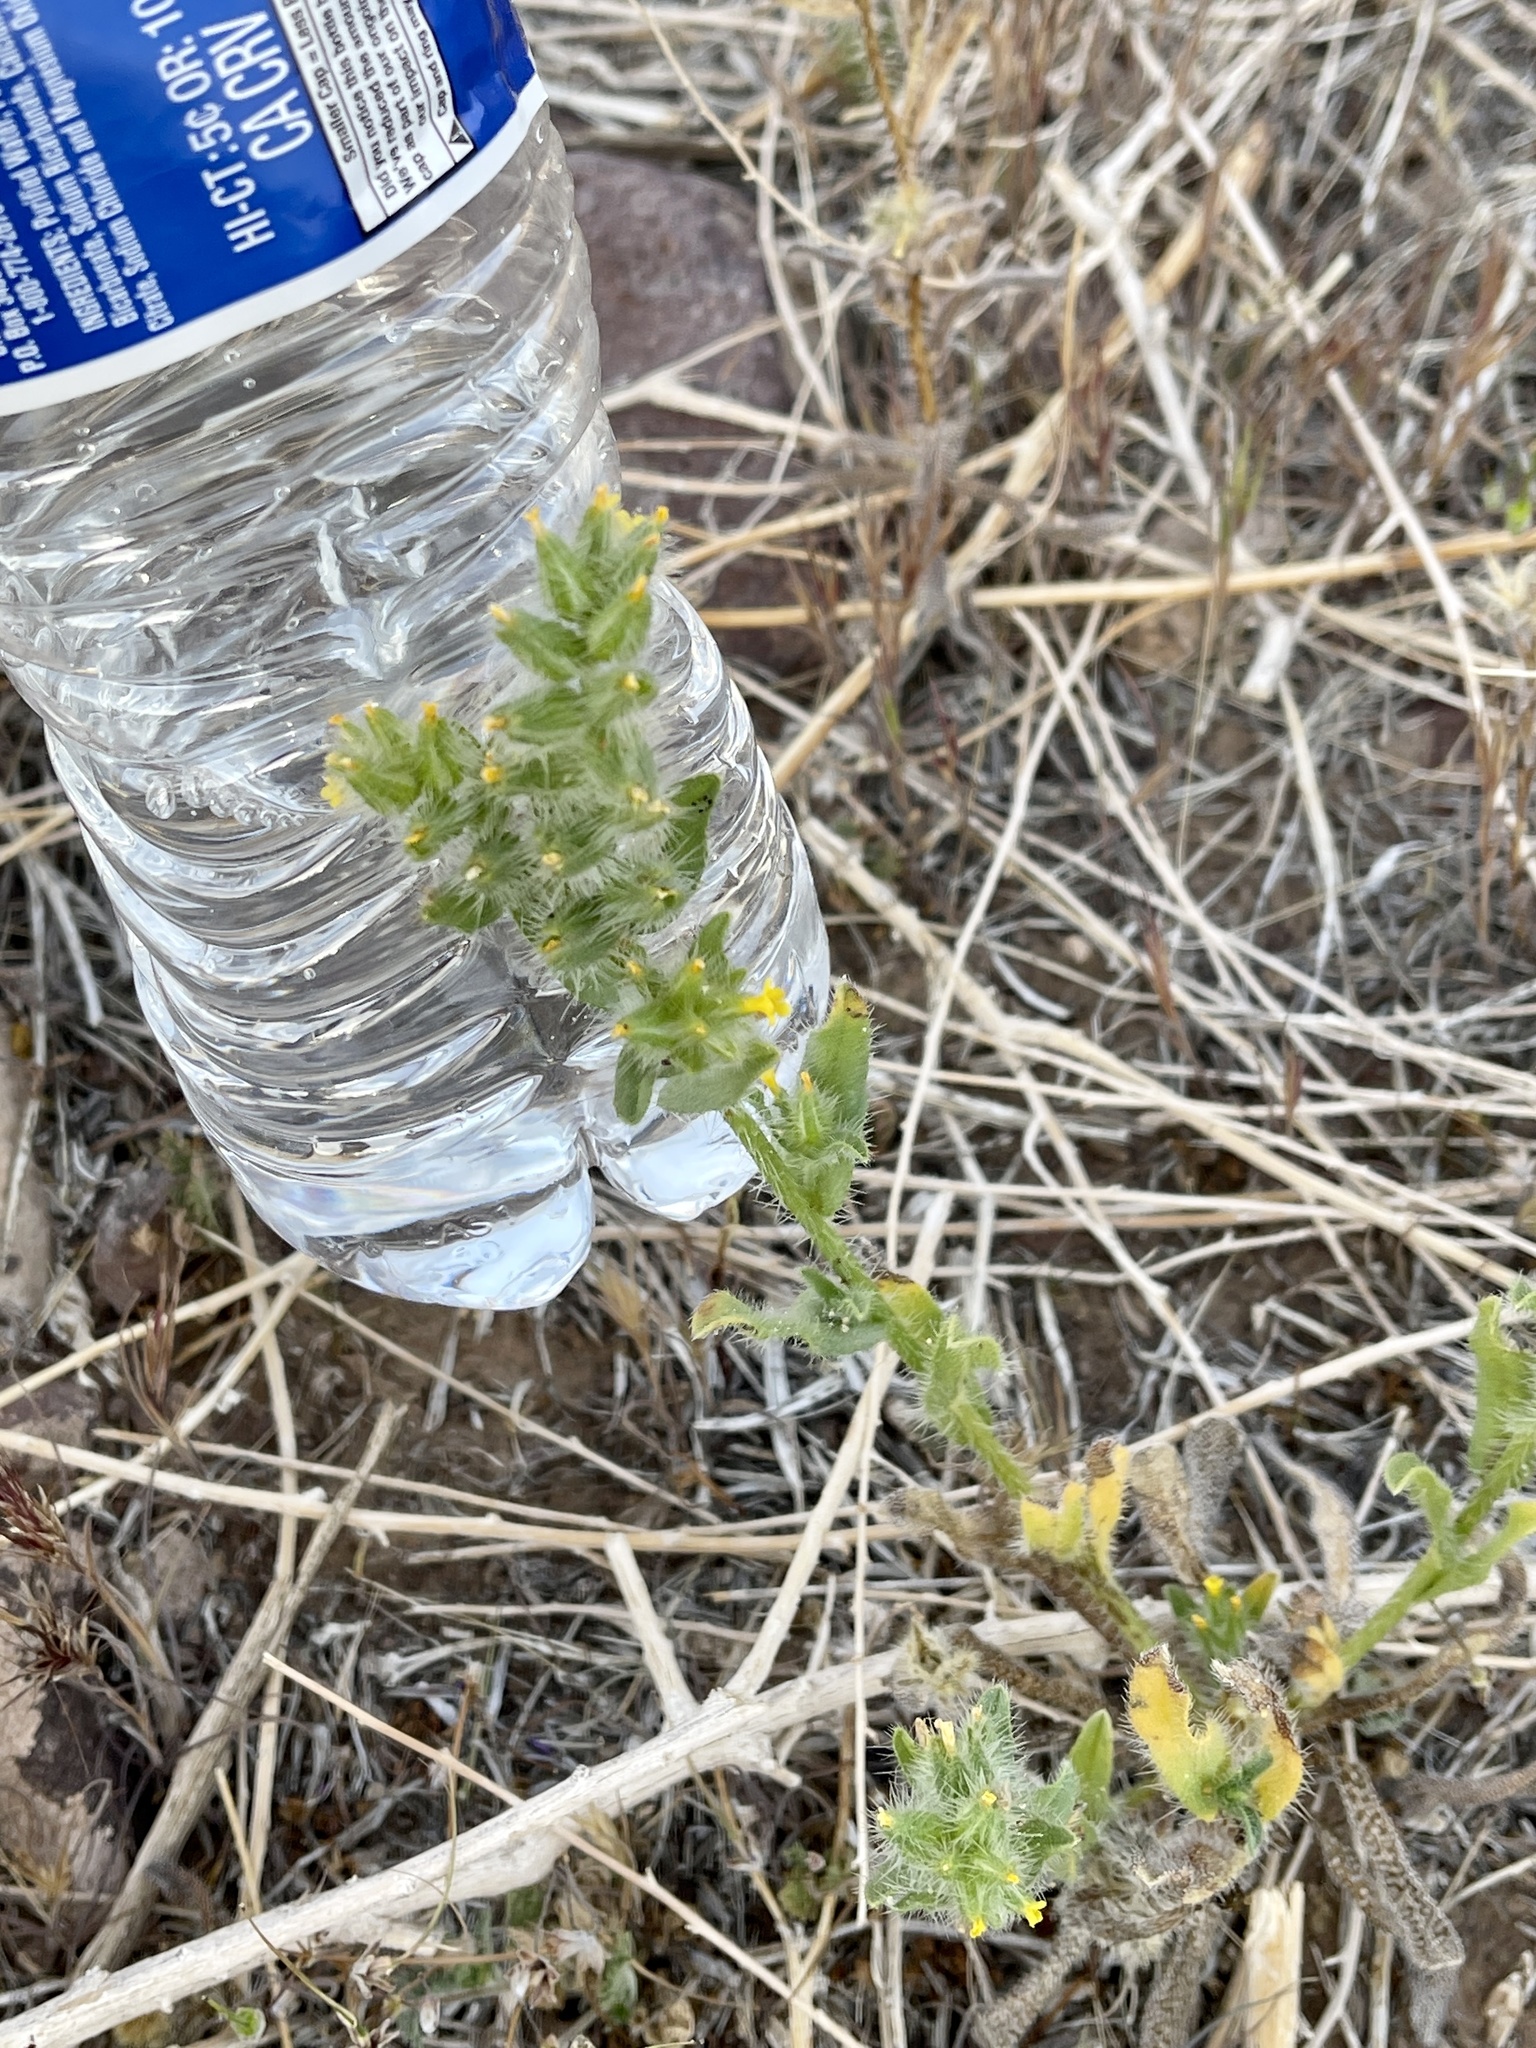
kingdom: Plantae
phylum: Tracheophyta
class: Magnoliopsida
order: Boraginales
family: Boraginaceae
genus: Amsinckia
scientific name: Amsinckia tessellata
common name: Tessellate fiddleneck
